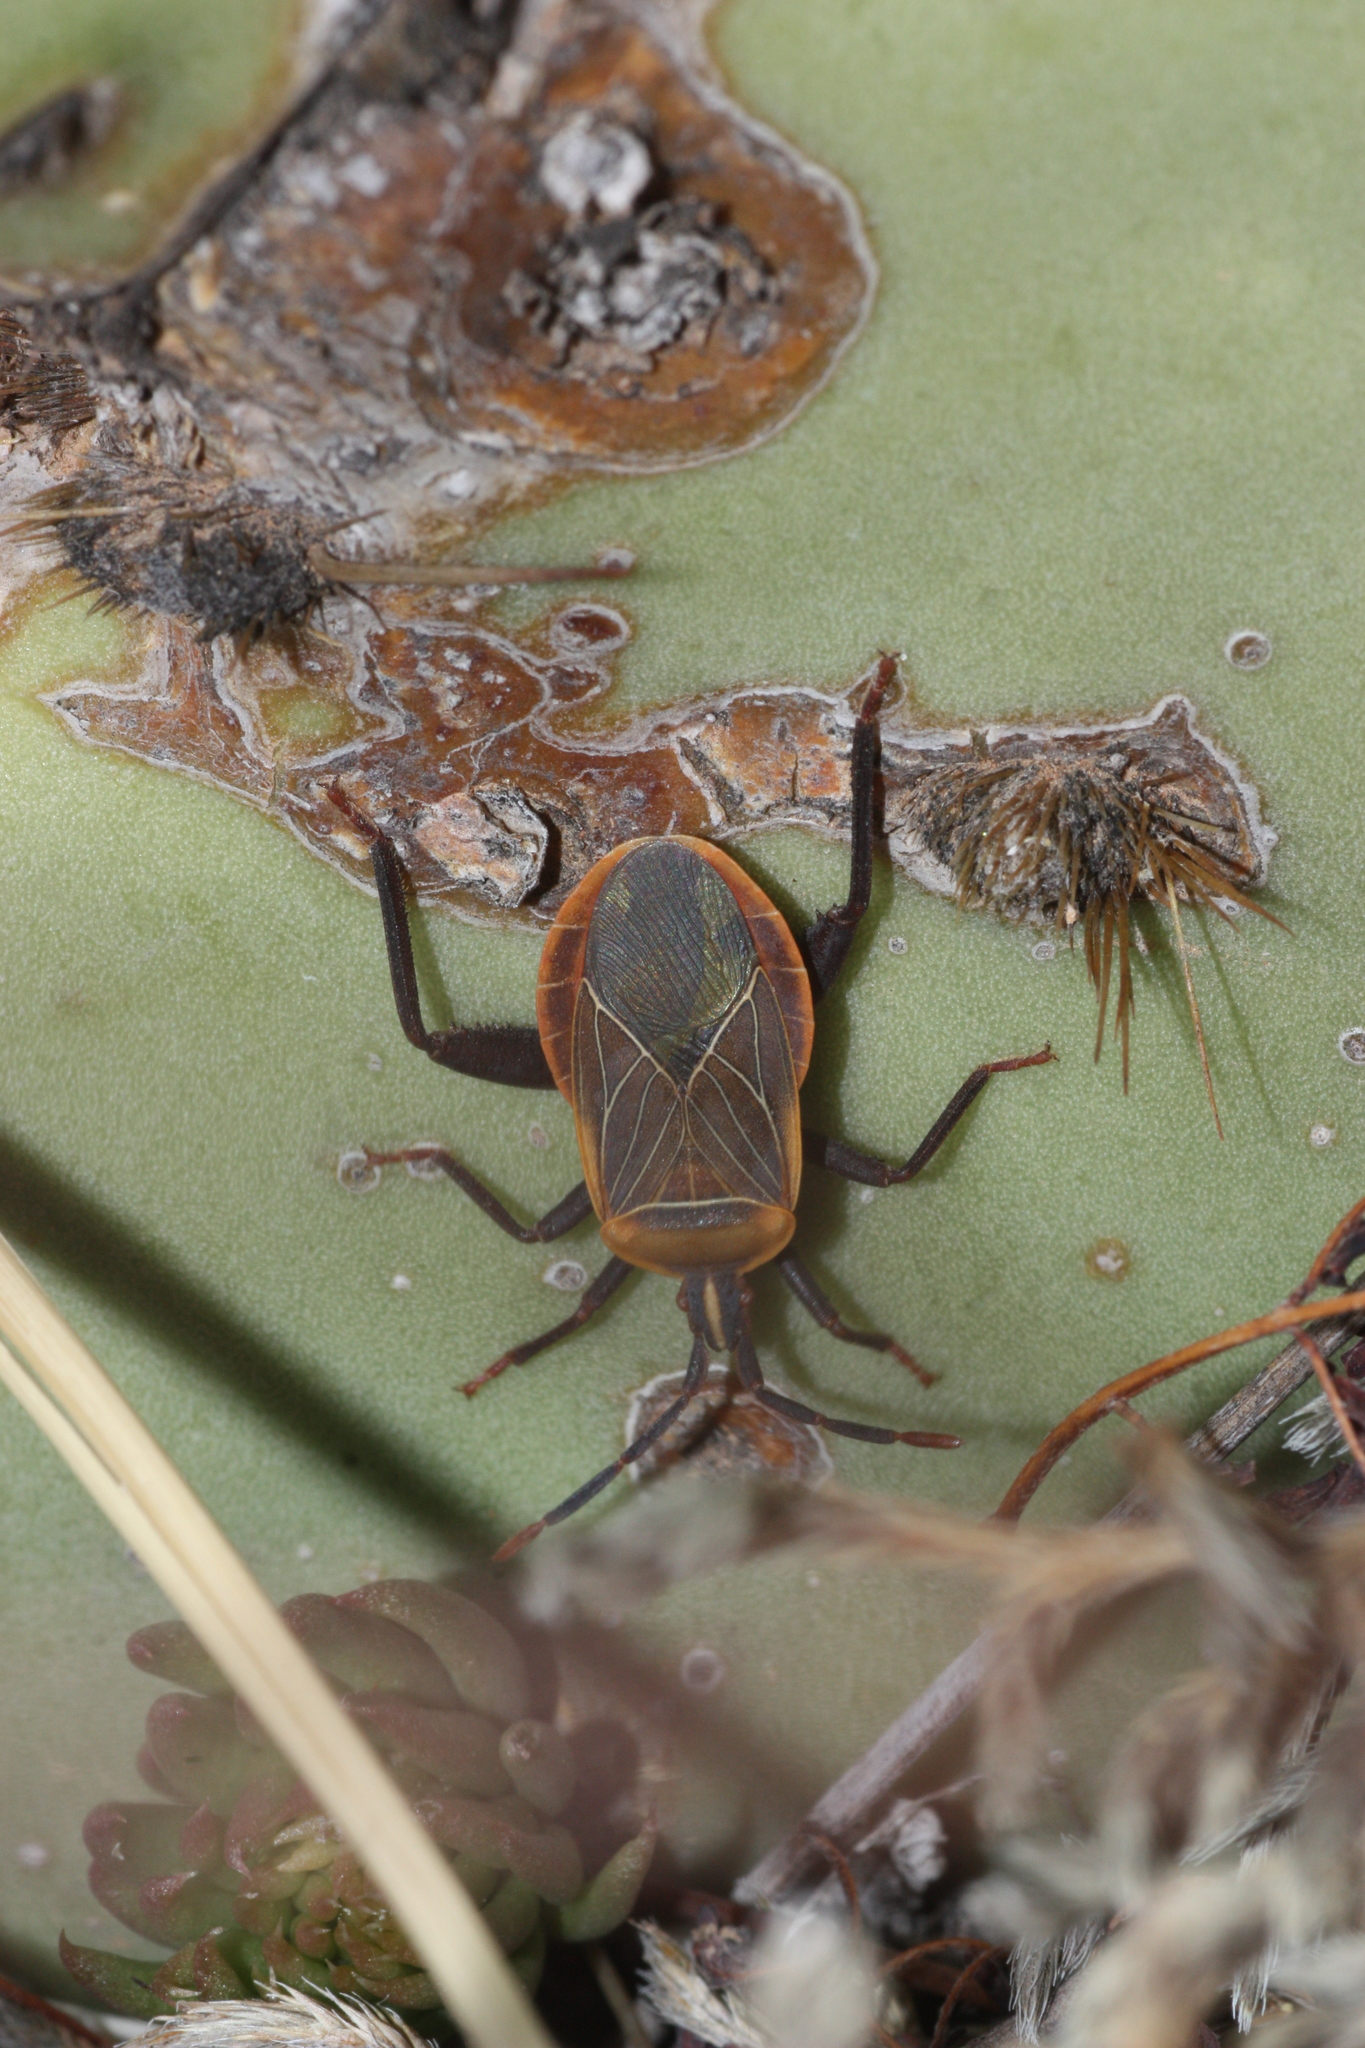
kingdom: Animalia
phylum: Arthropoda
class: Insecta
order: Hemiptera
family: Coreidae
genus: Chelinidea
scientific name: Chelinidea vittiger
